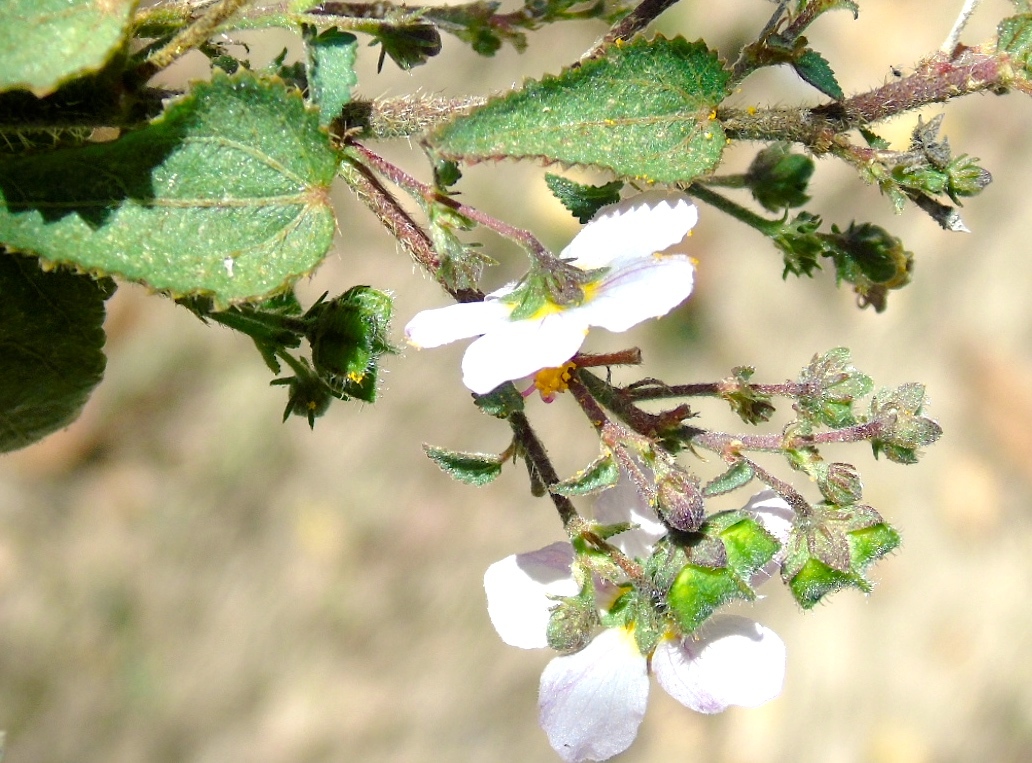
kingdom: Plantae
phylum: Tracheophyta
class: Magnoliopsida
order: Malvales
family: Malvaceae
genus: Kosteletzkya
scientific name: Kosteletzkya depressa
